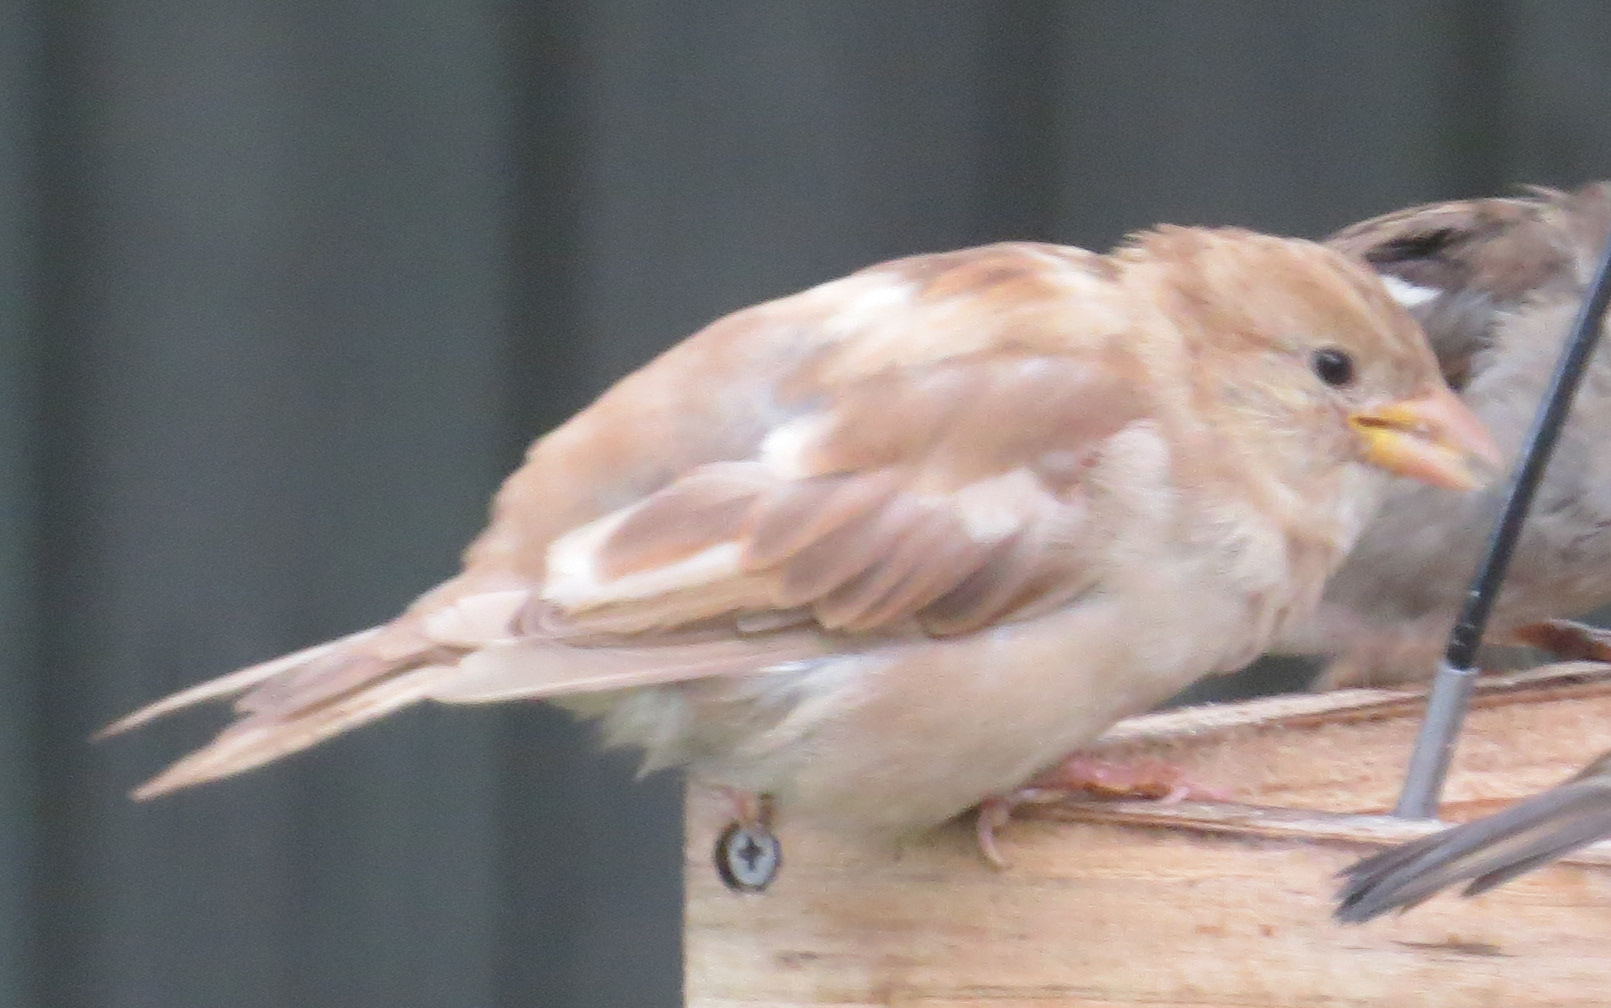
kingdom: Animalia
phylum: Chordata
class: Aves
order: Passeriformes
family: Passeridae
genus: Passer
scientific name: Passer domesticus
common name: House sparrow
